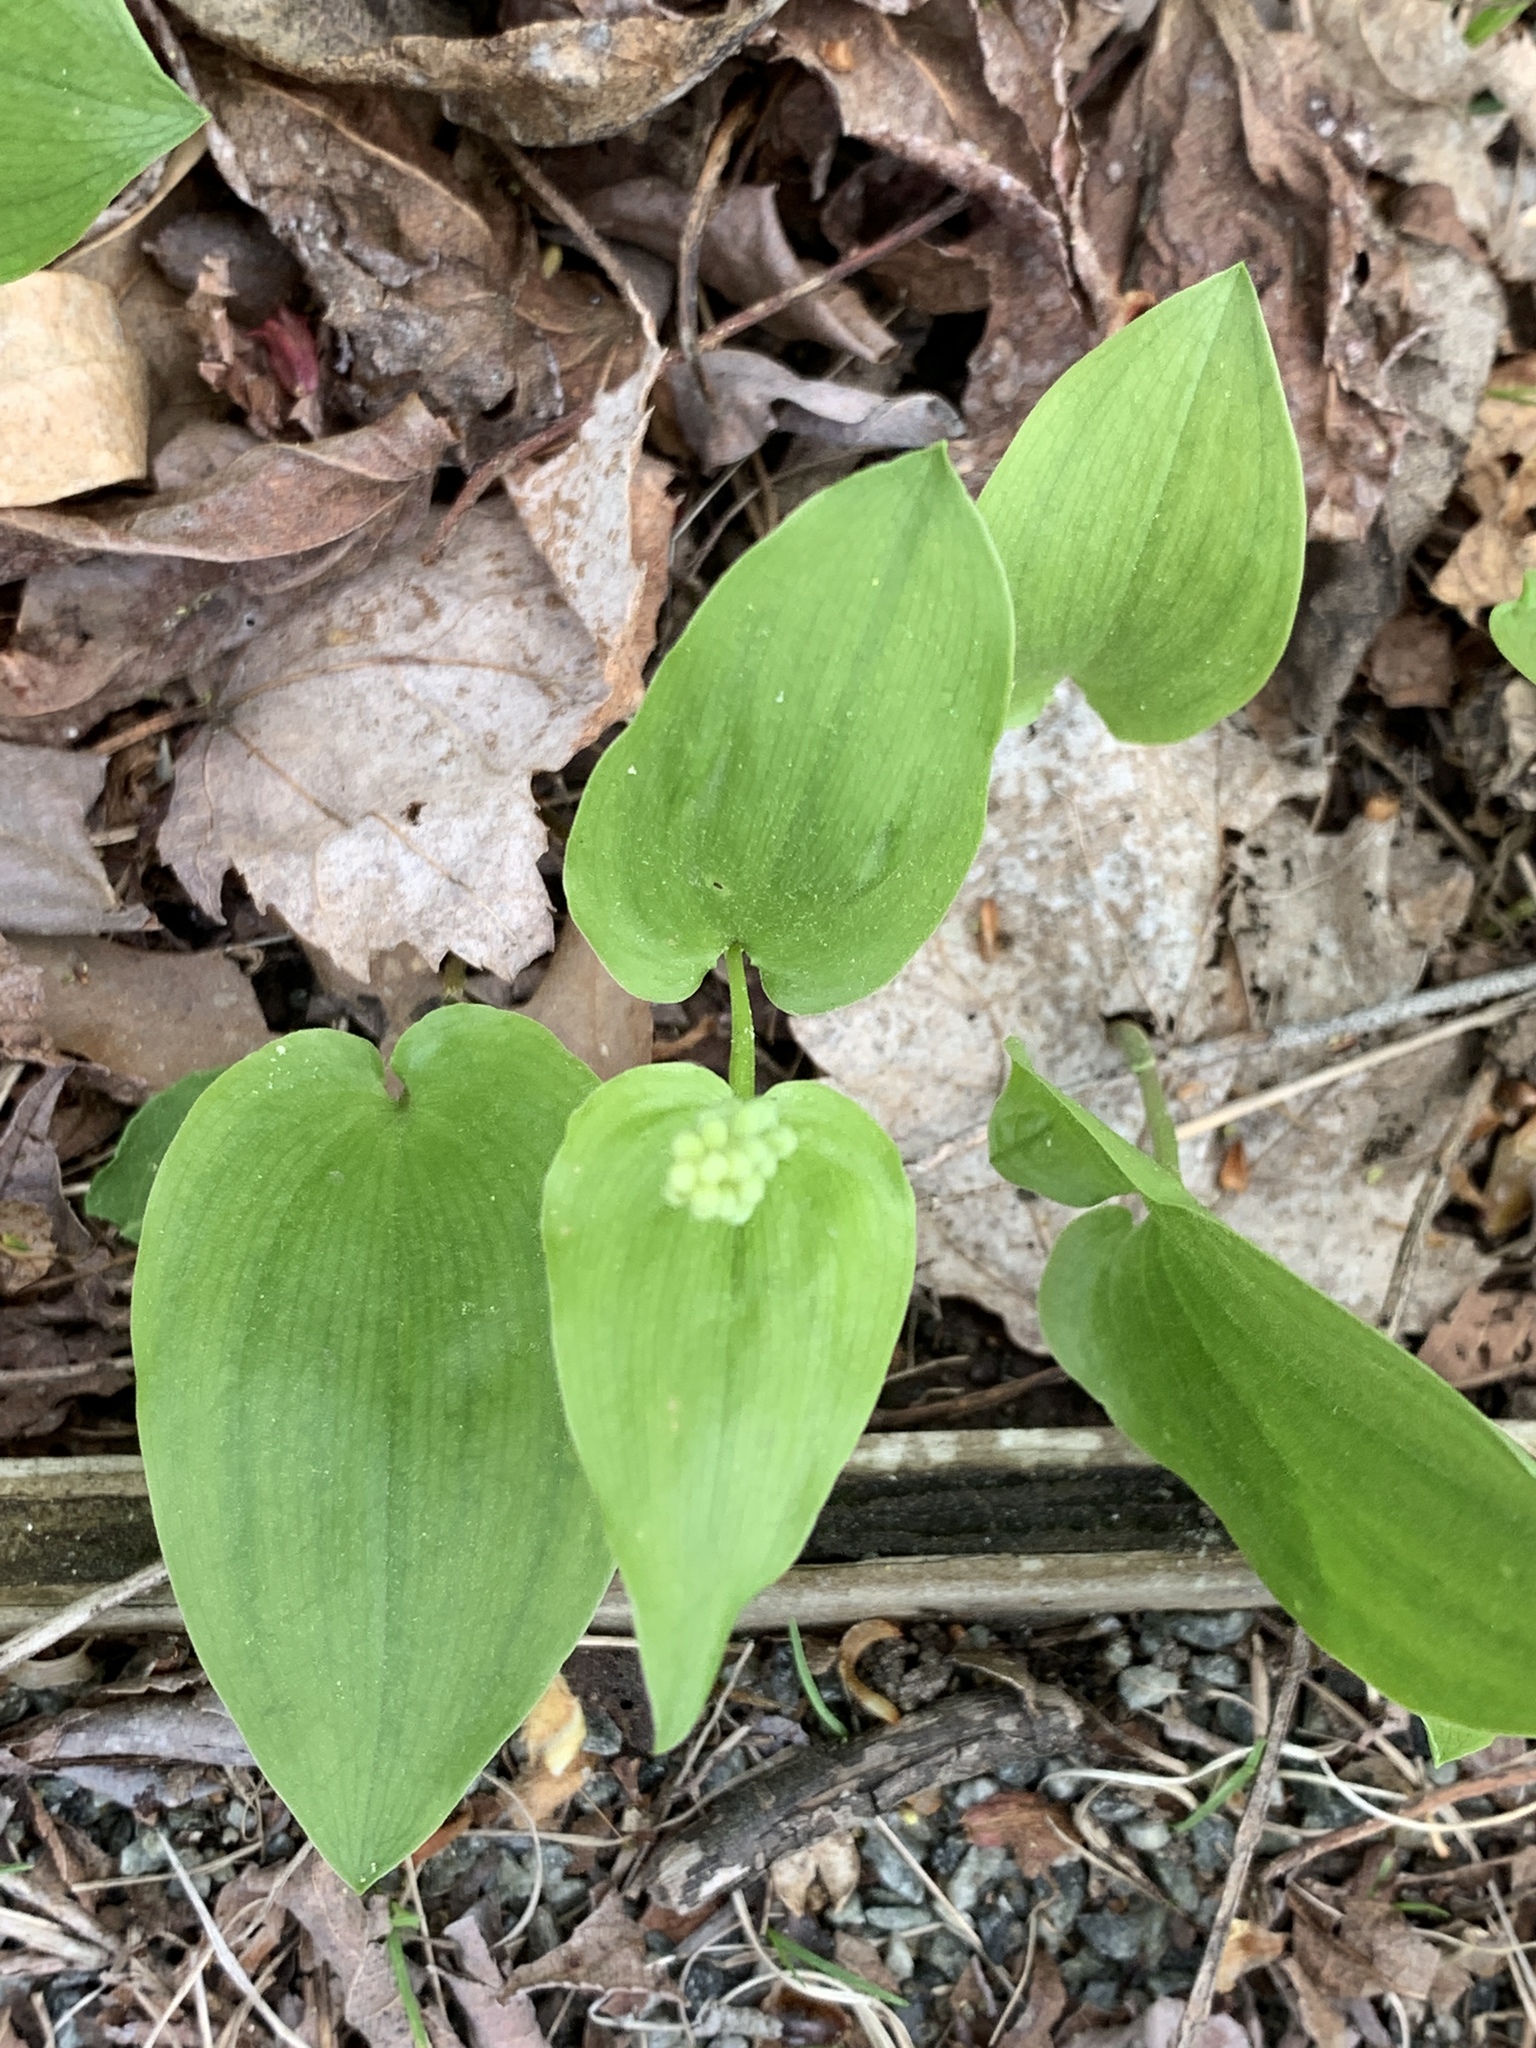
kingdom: Plantae
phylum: Tracheophyta
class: Liliopsida
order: Asparagales
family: Asparagaceae
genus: Maianthemum
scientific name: Maianthemum canadense
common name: False lily-of-the-valley
